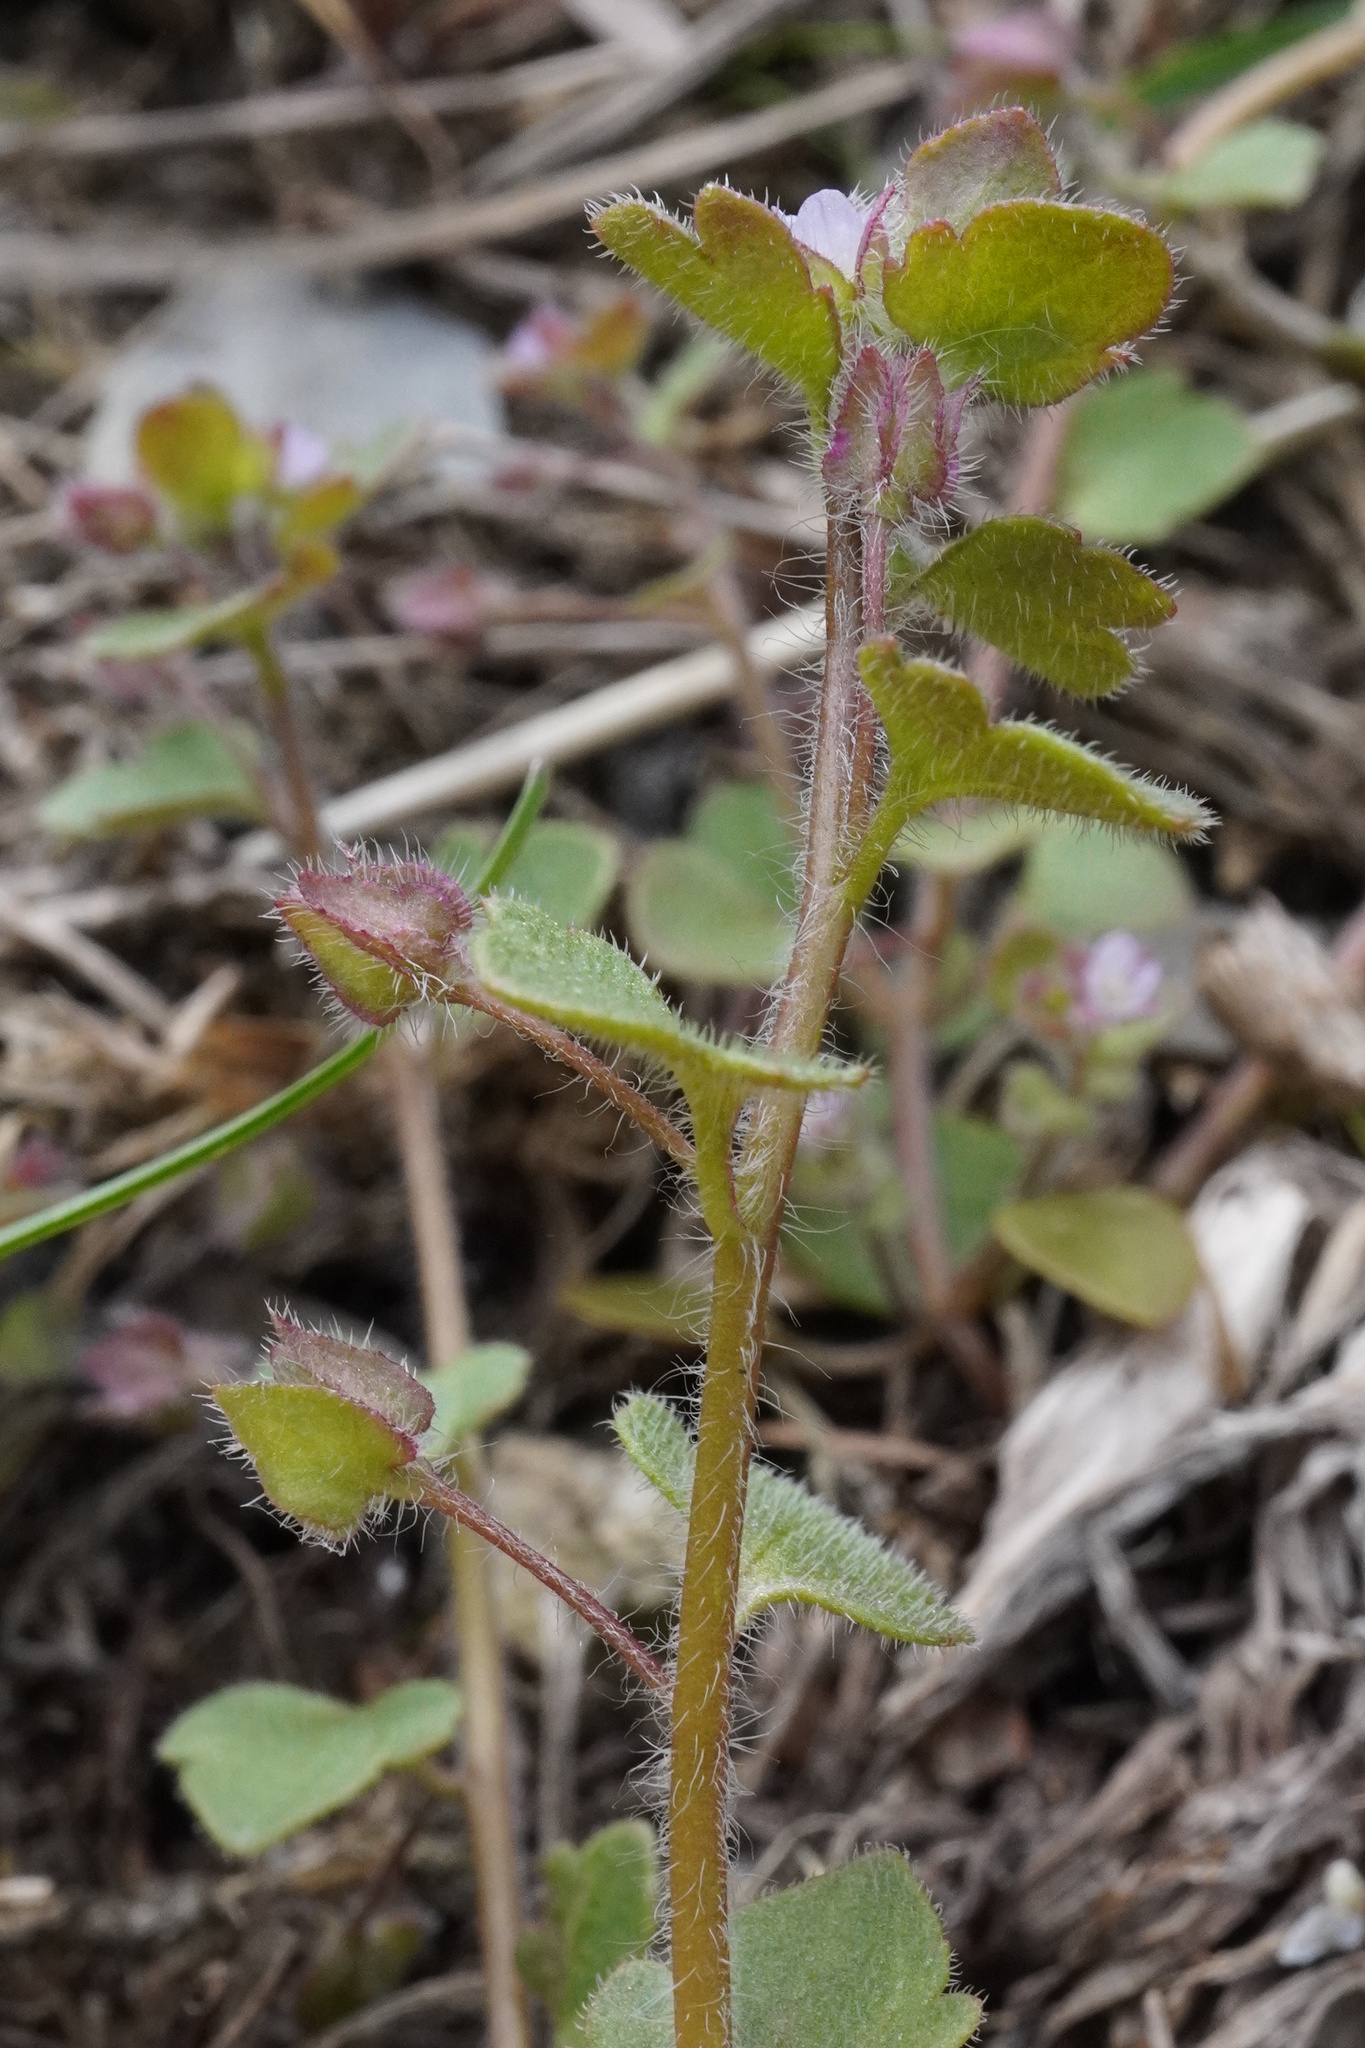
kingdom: Plantae
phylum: Tracheophyta
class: Magnoliopsida
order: Lamiales
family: Plantaginaceae
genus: Veronica
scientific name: Veronica sublobata
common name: False ivy-leaved speedwell
